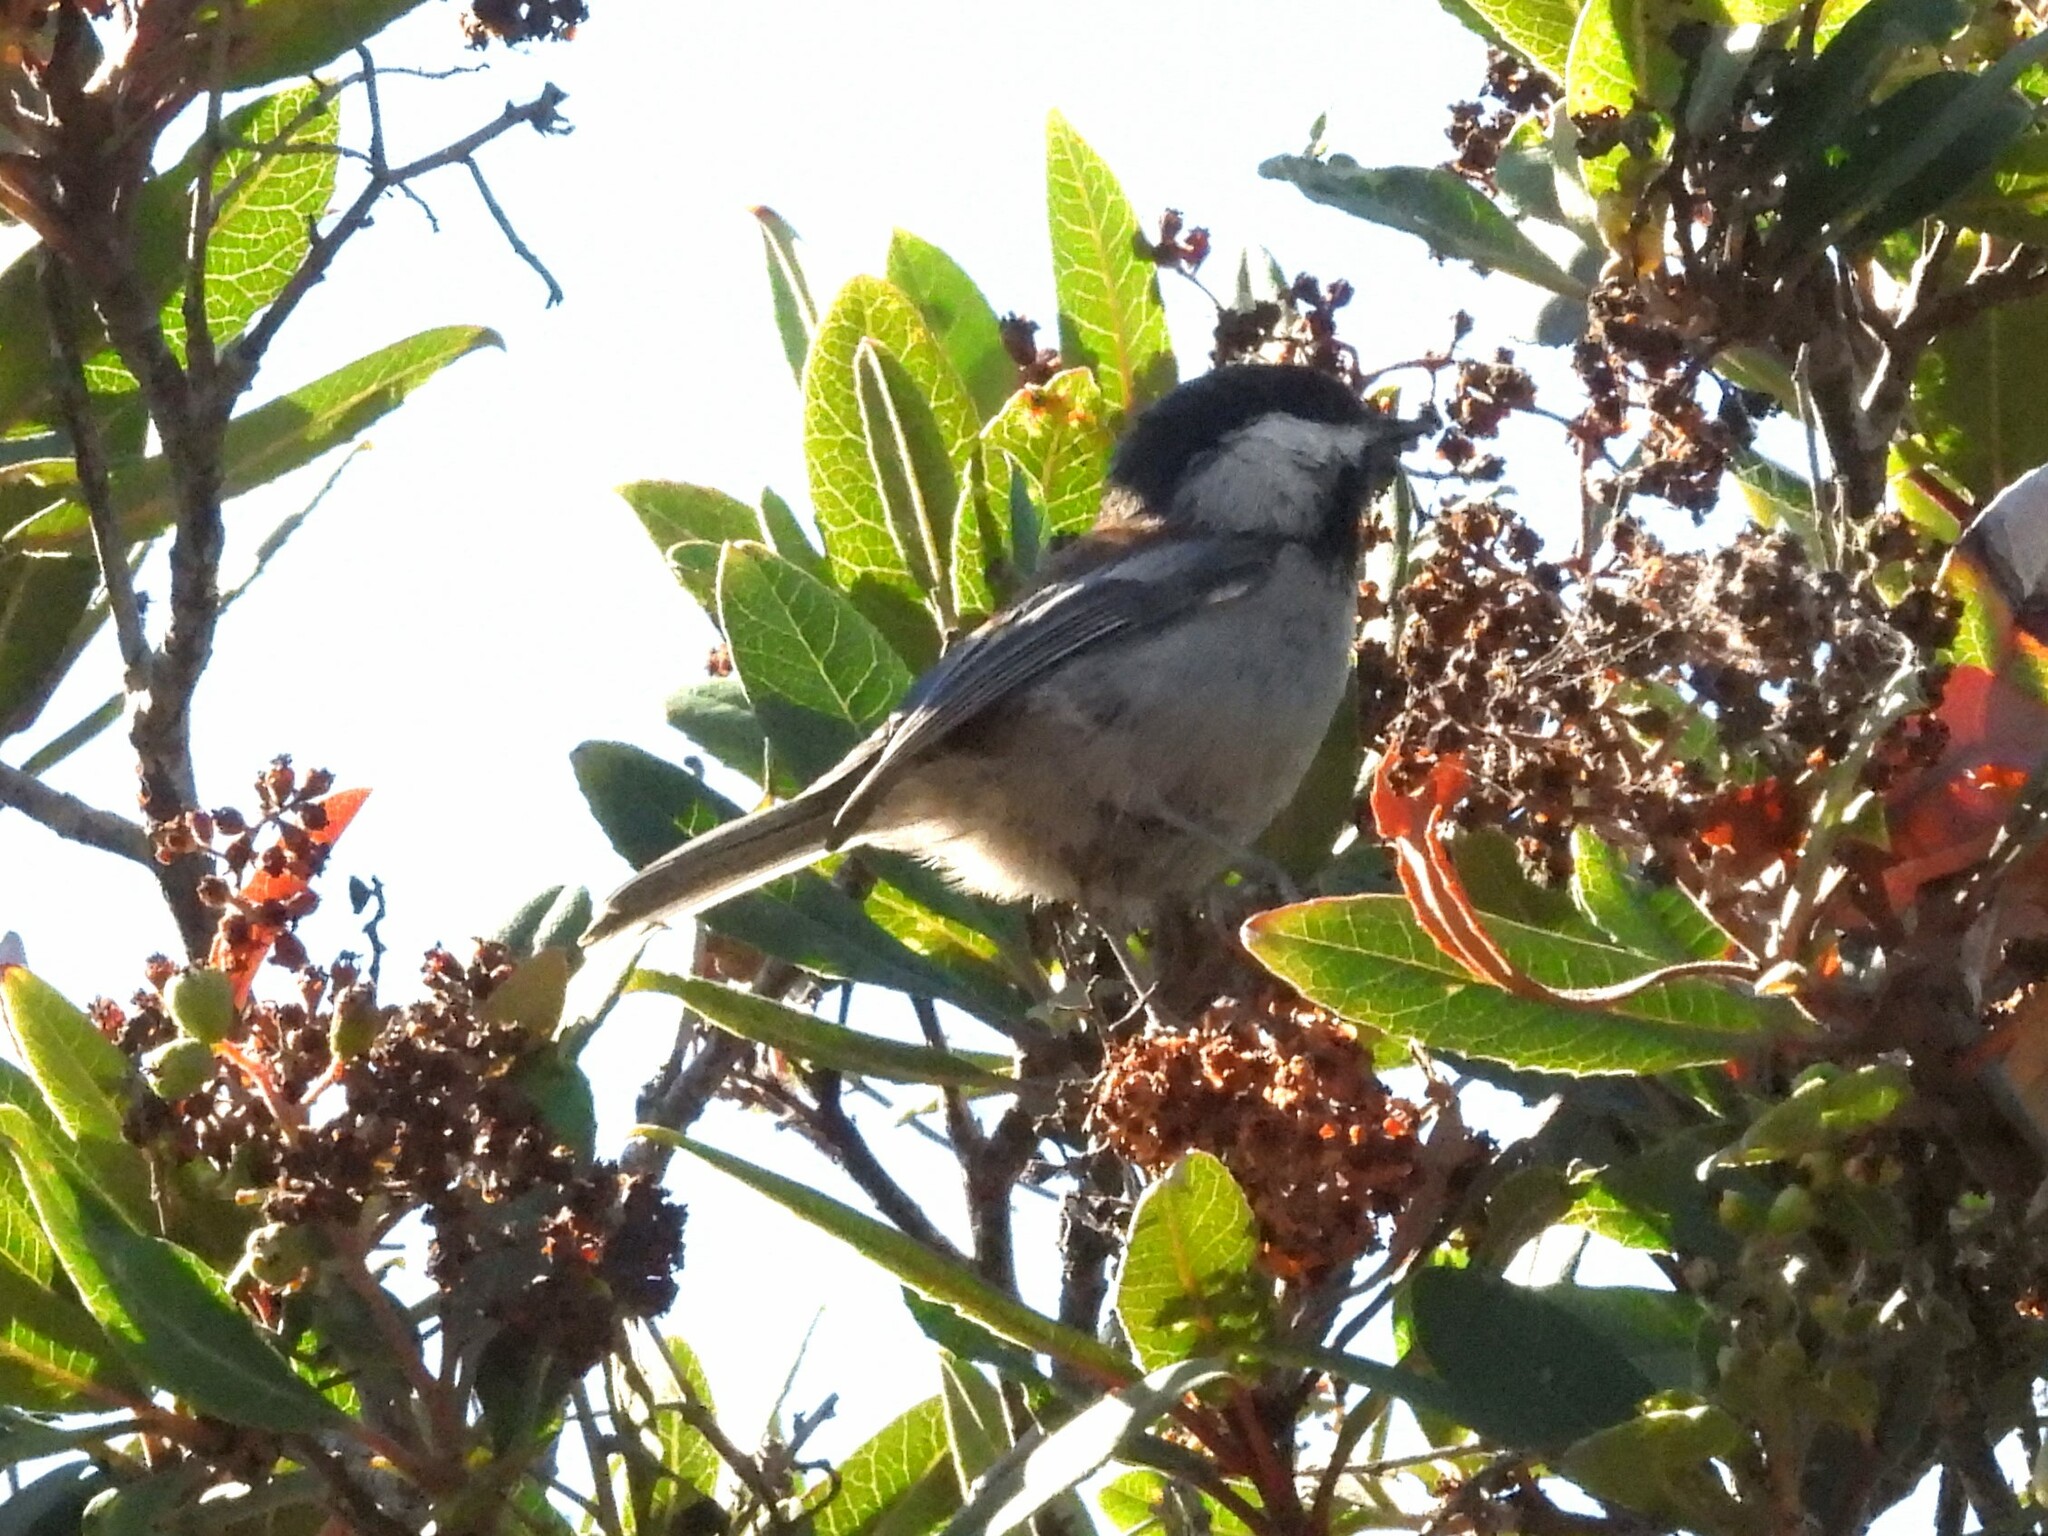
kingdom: Animalia
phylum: Chordata
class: Aves
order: Passeriformes
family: Paridae
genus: Poecile
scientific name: Poecile rufescens
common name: Chestnut-backed chickadee
